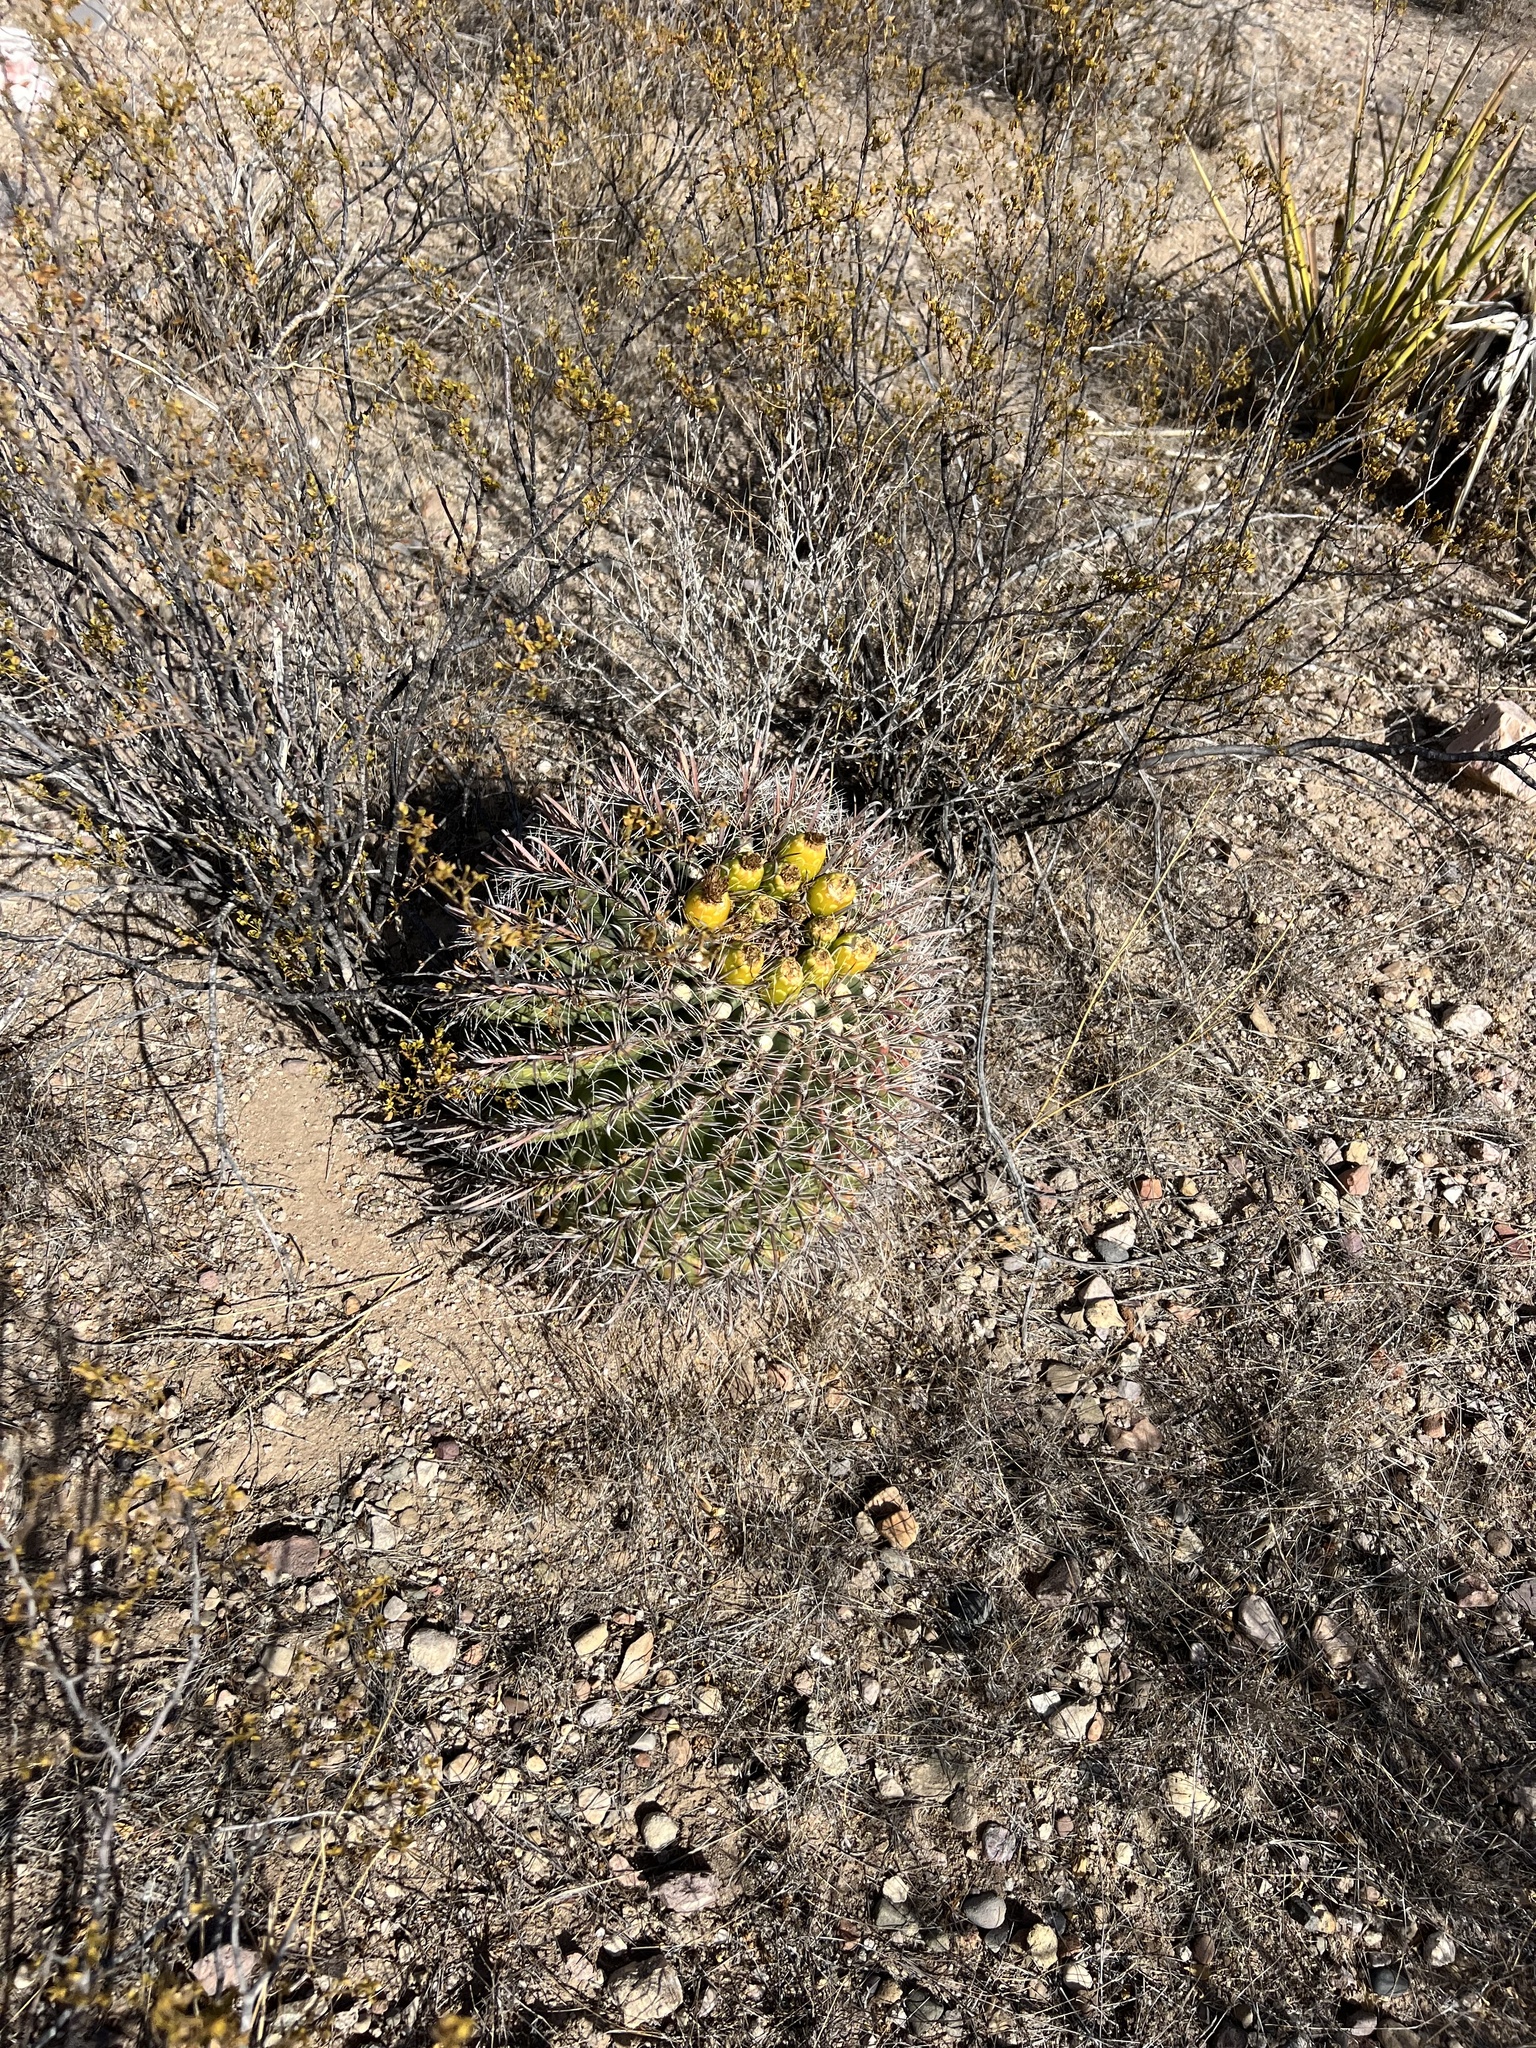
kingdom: Plantae
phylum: Tracheophyta
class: Magnoliopsida
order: Caryophyllales
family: Cactaceae
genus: Ferocactus
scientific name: Ferocactus wislizeni
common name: Candy barrel cactus
